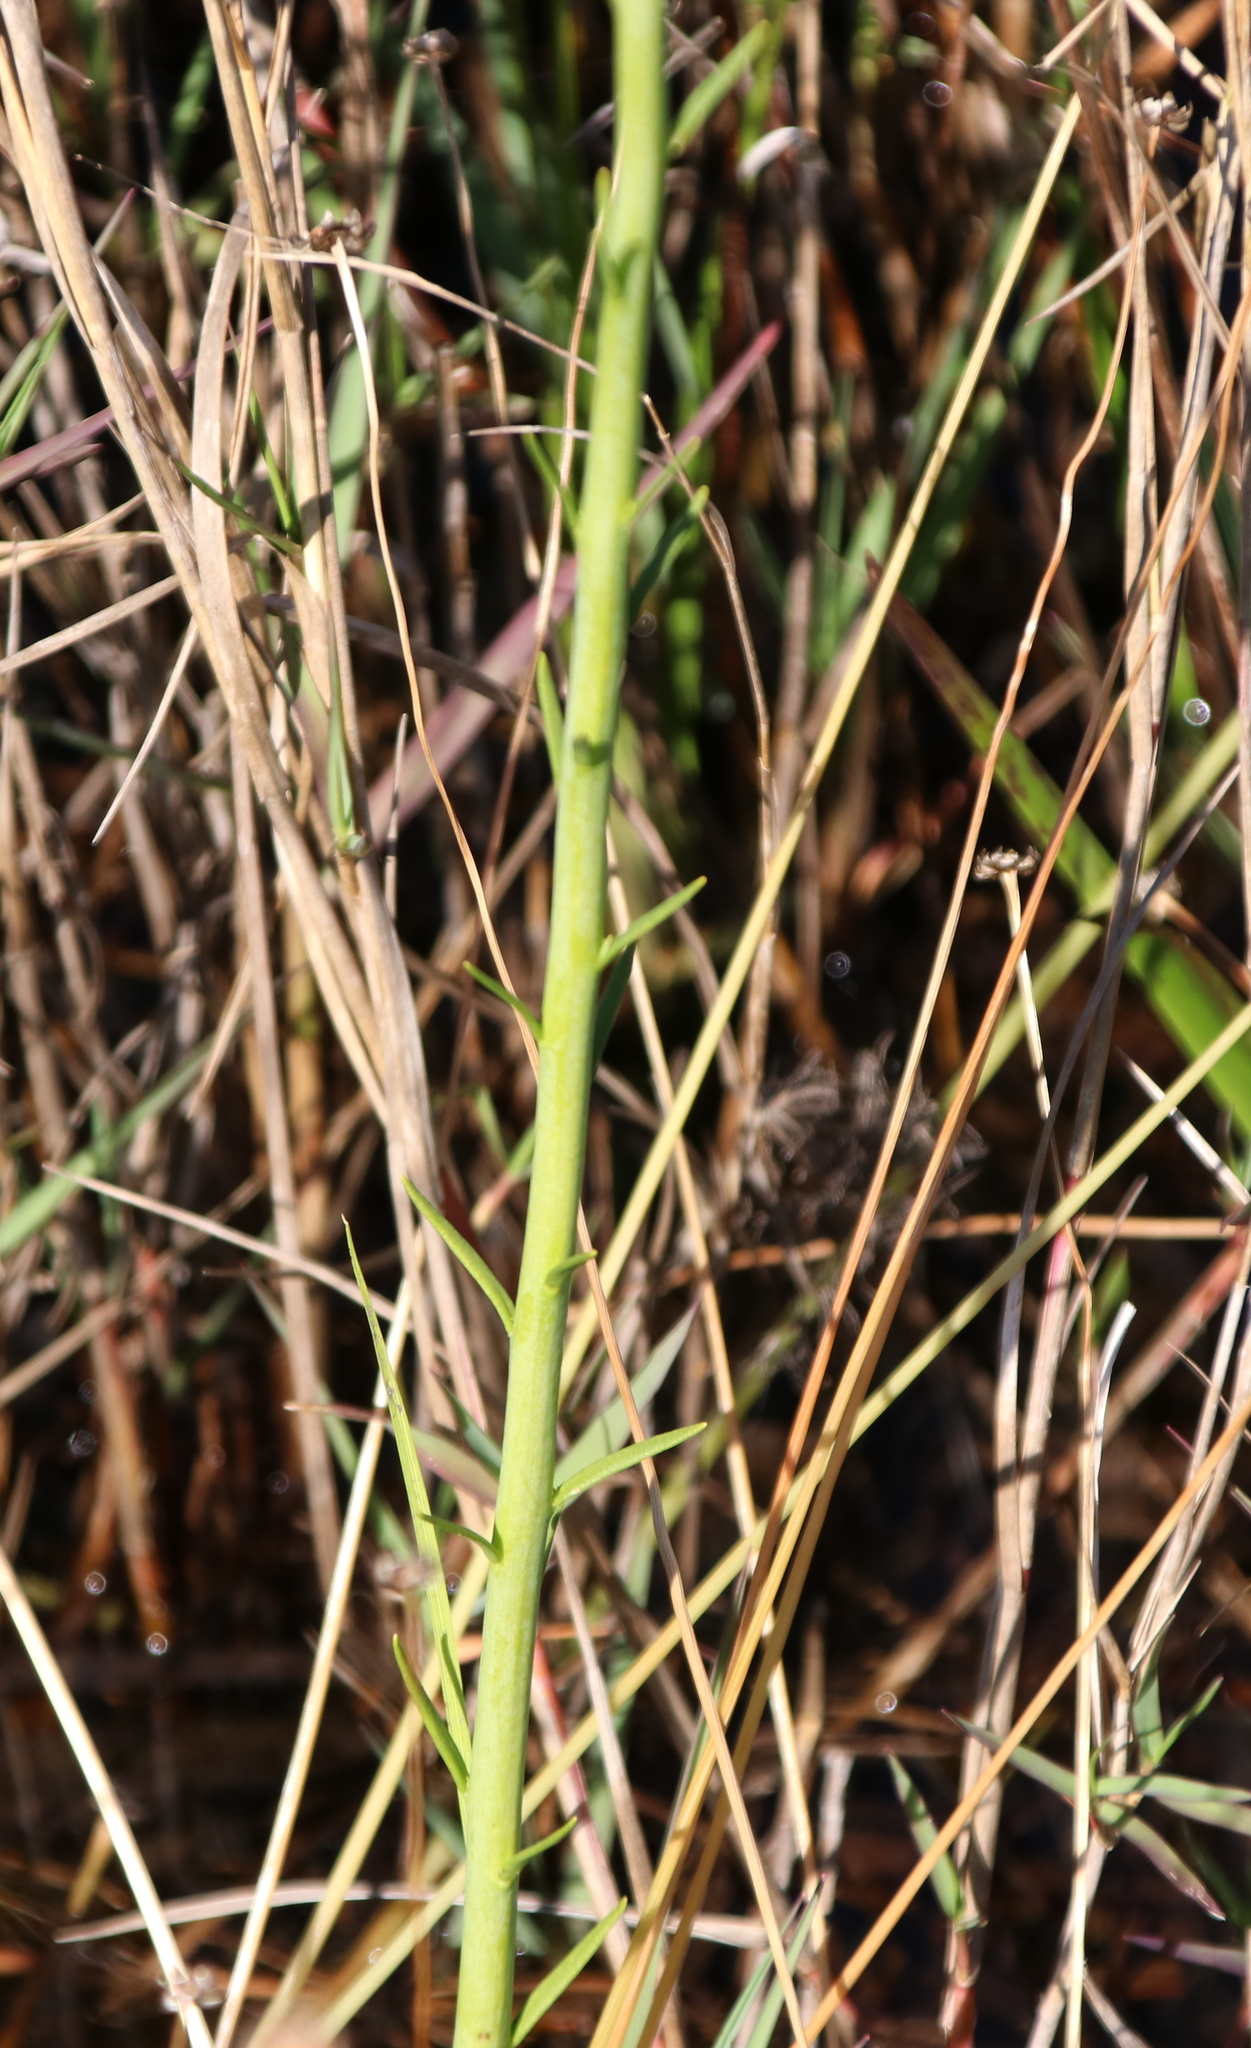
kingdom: Plantae
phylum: Tracheophyta
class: Magnoliopsida
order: Fabales
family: Polygalaceae
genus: Polygala
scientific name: Polygala cymosa
